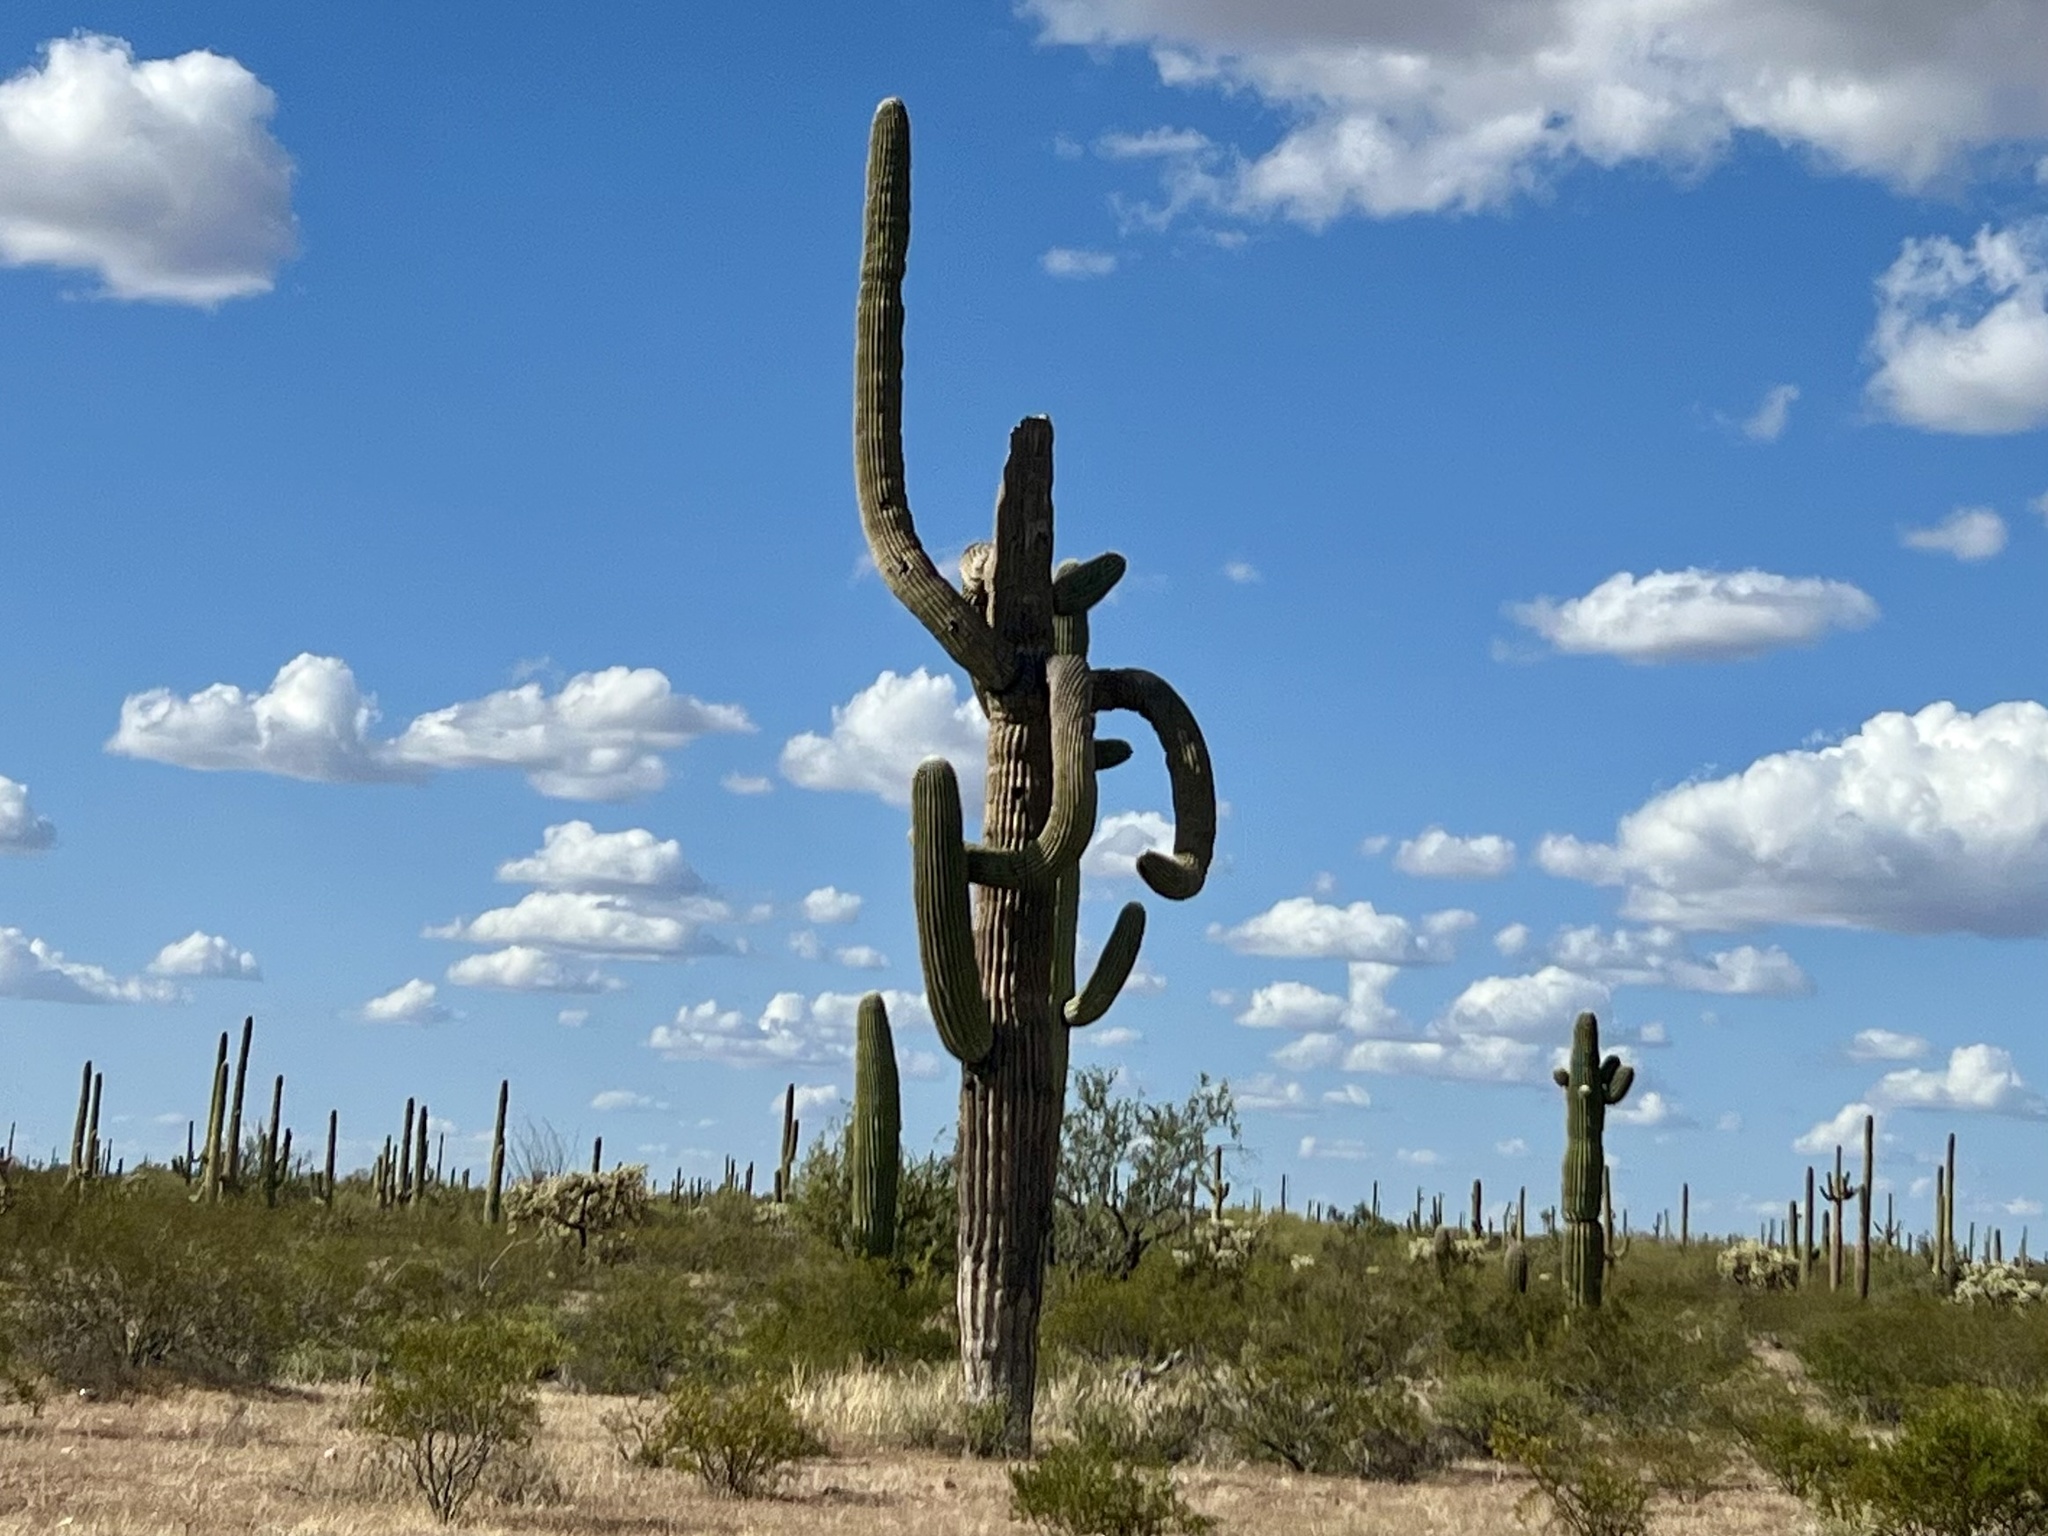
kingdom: Plantae
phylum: Tracheophyta
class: Magnoliopsida
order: Caryophyllales
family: Cactaceae
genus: Carnegiea
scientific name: Carnegiea gigantea
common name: Saguaro
